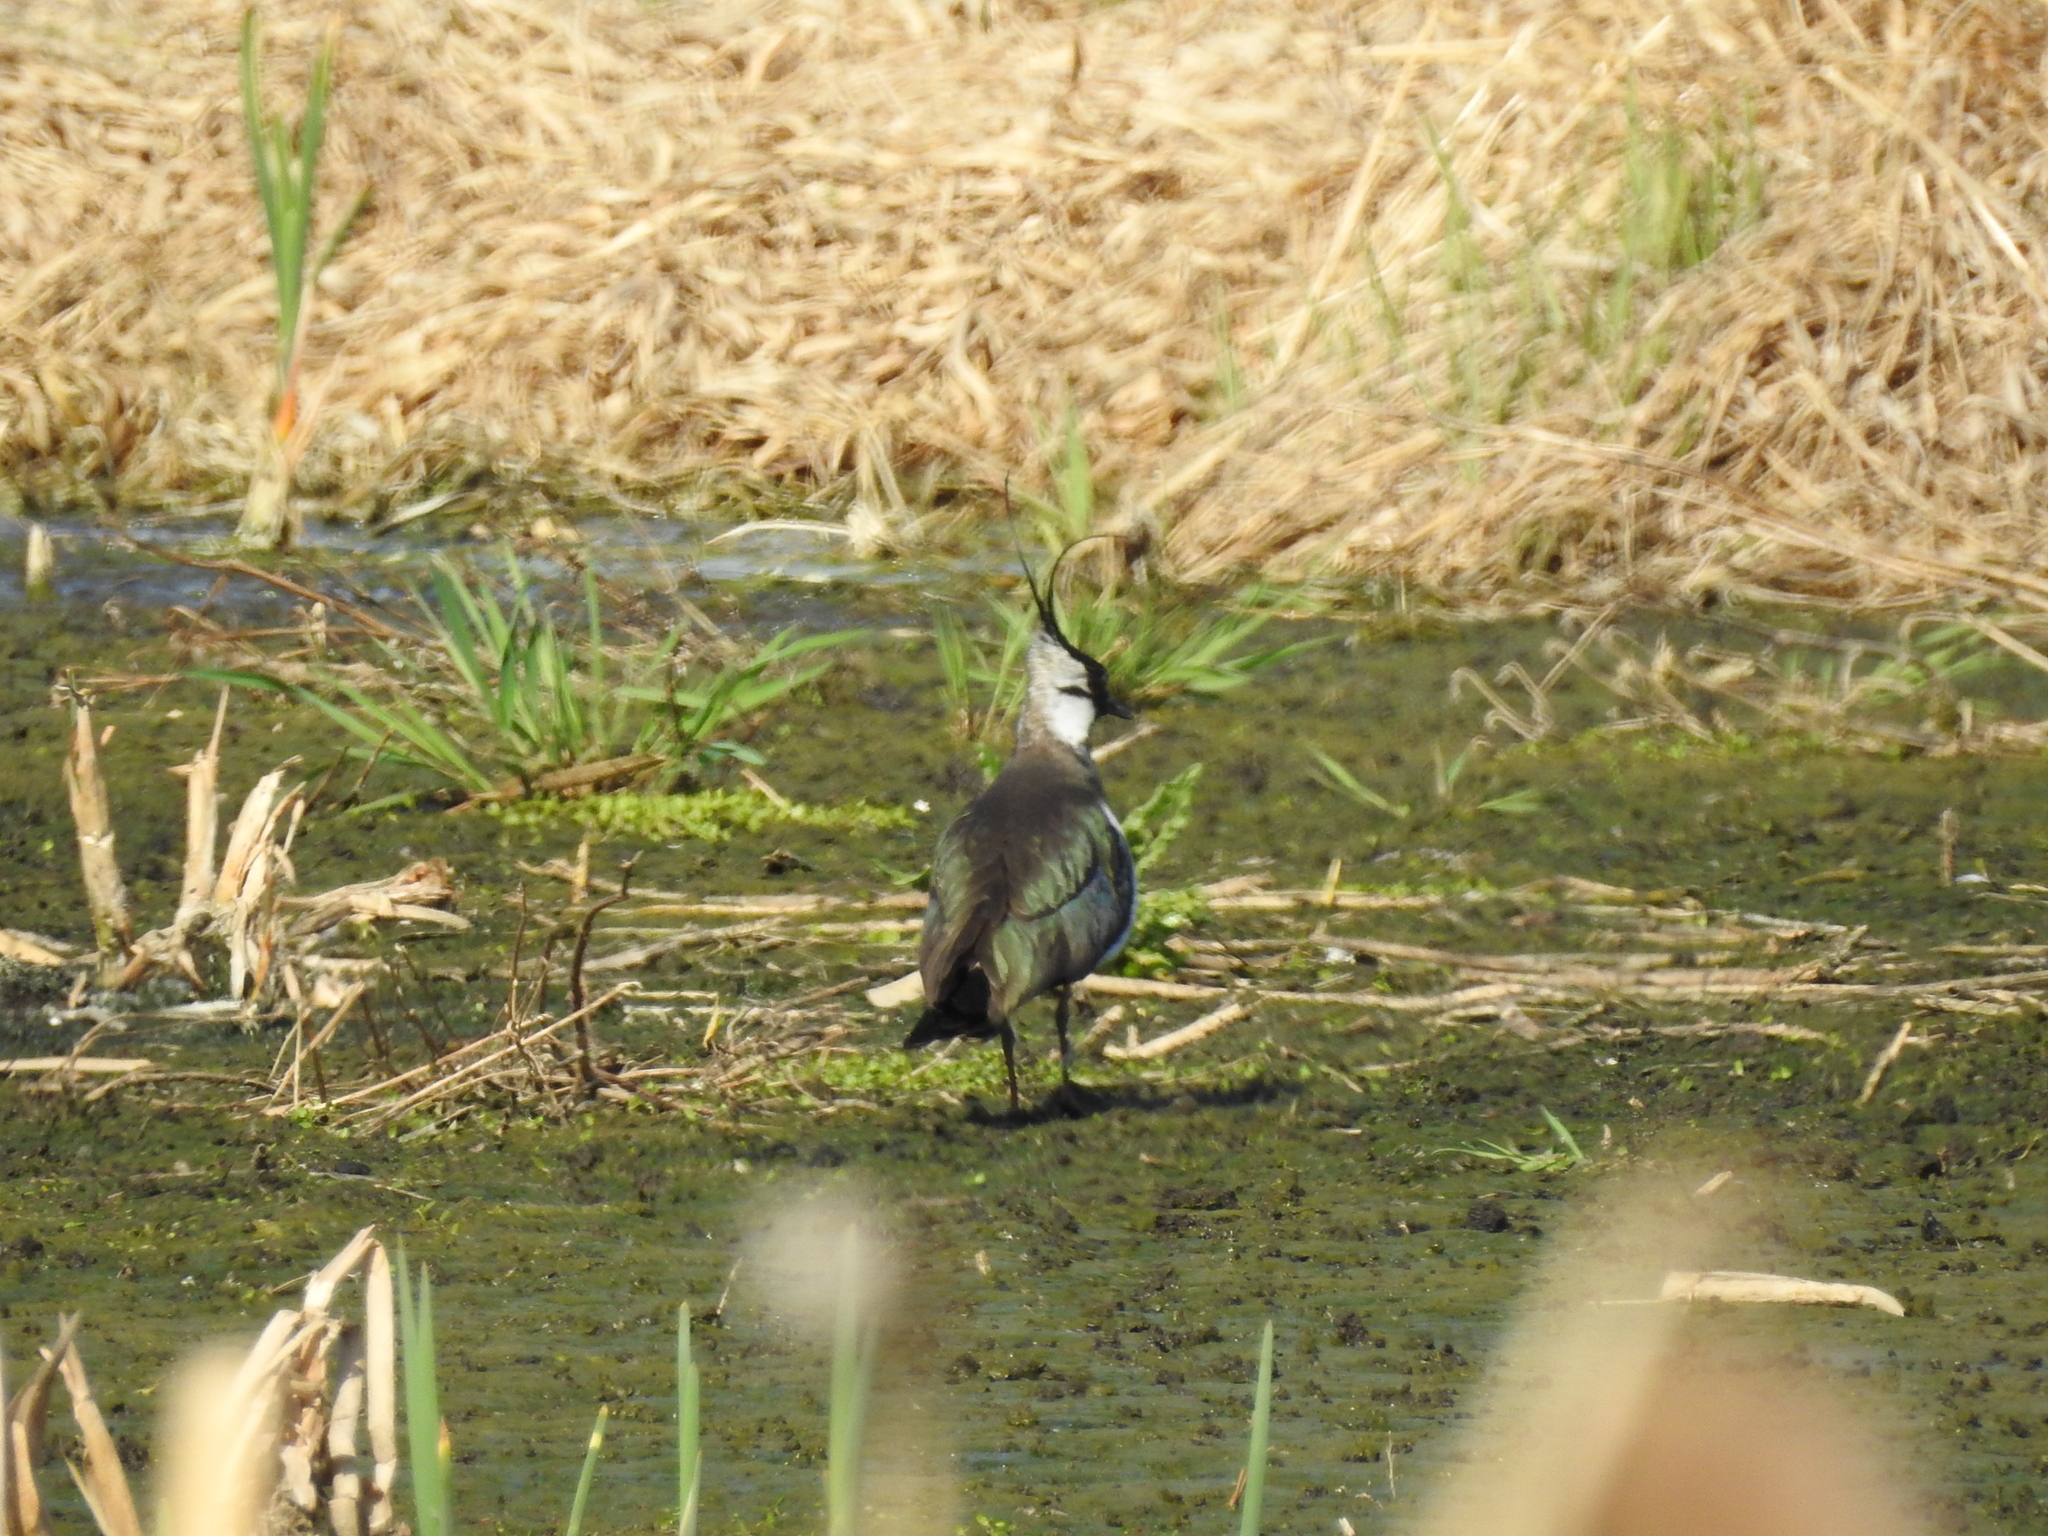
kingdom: Animalia
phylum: Chordata
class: Aves
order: Charadriiformes
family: Charadriidae
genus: Vanellus
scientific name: Vanellus vanellus
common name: Northern lapwing
